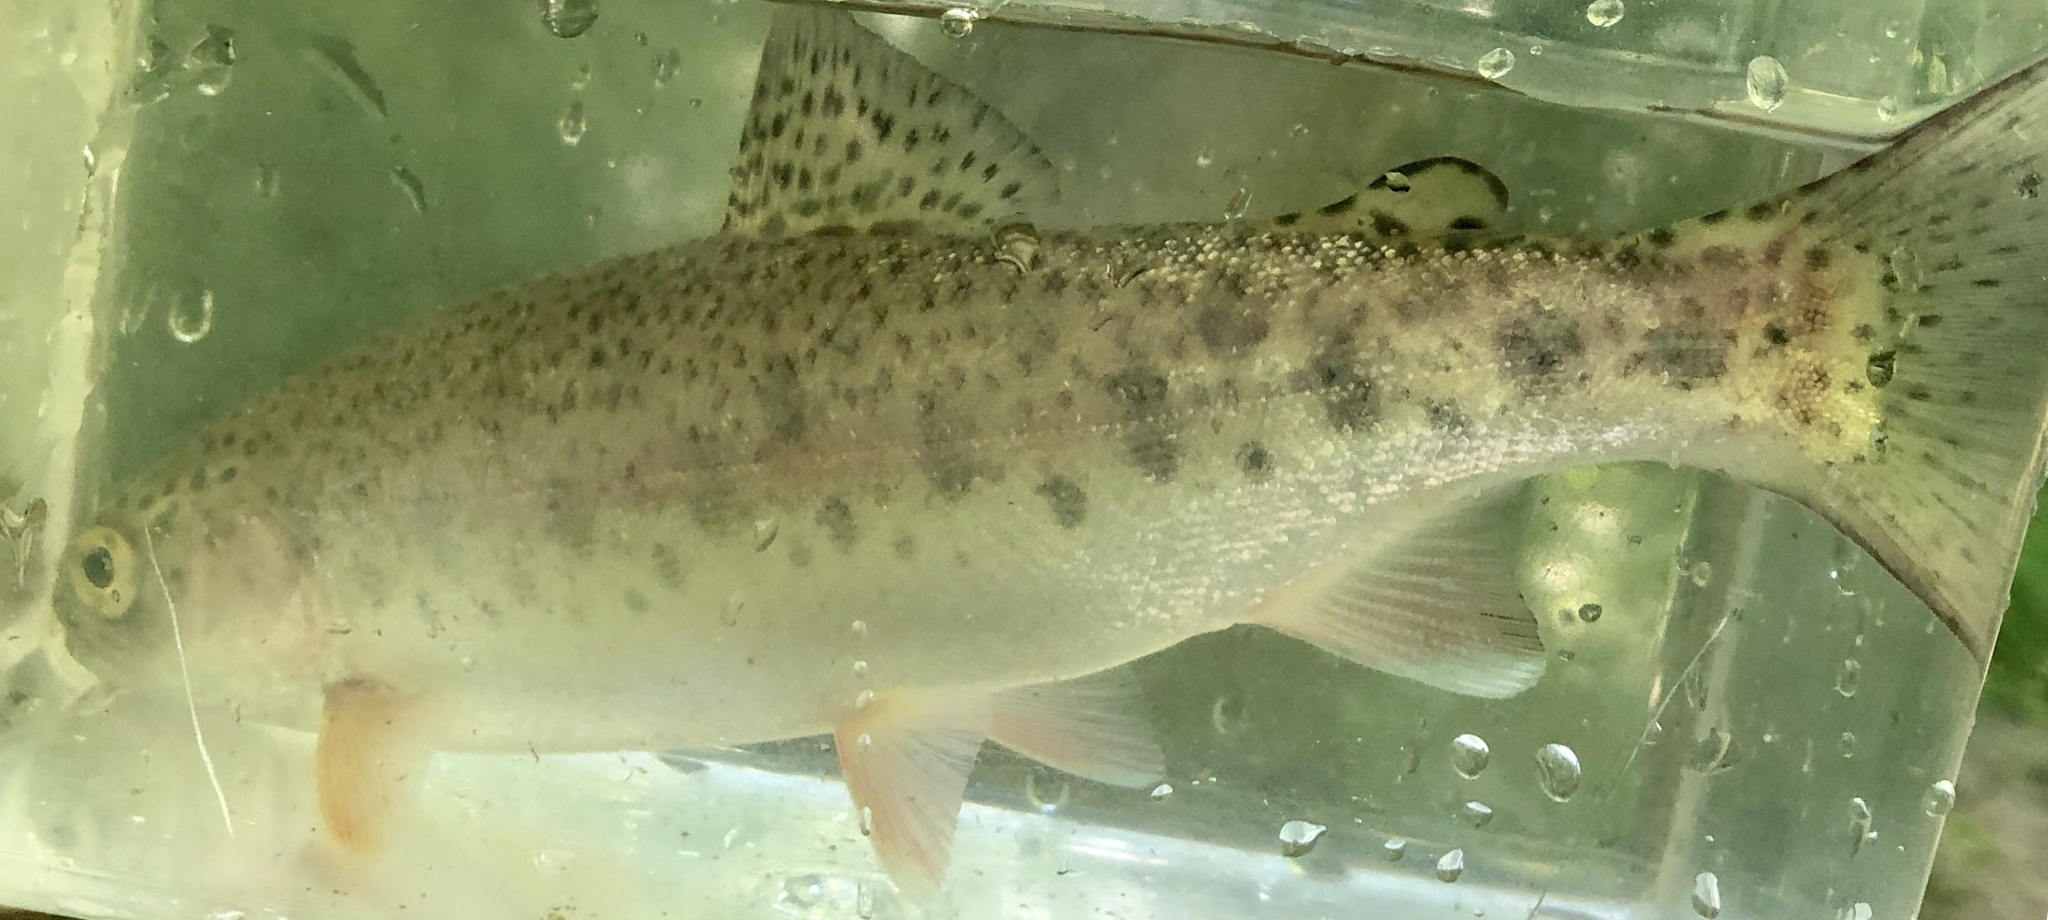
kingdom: Animalia
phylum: Chordata
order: Salmoniformes
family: Salmonidae
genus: Oncorhynchus
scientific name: Oncorhynchus mykiss
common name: Rainbow trout
